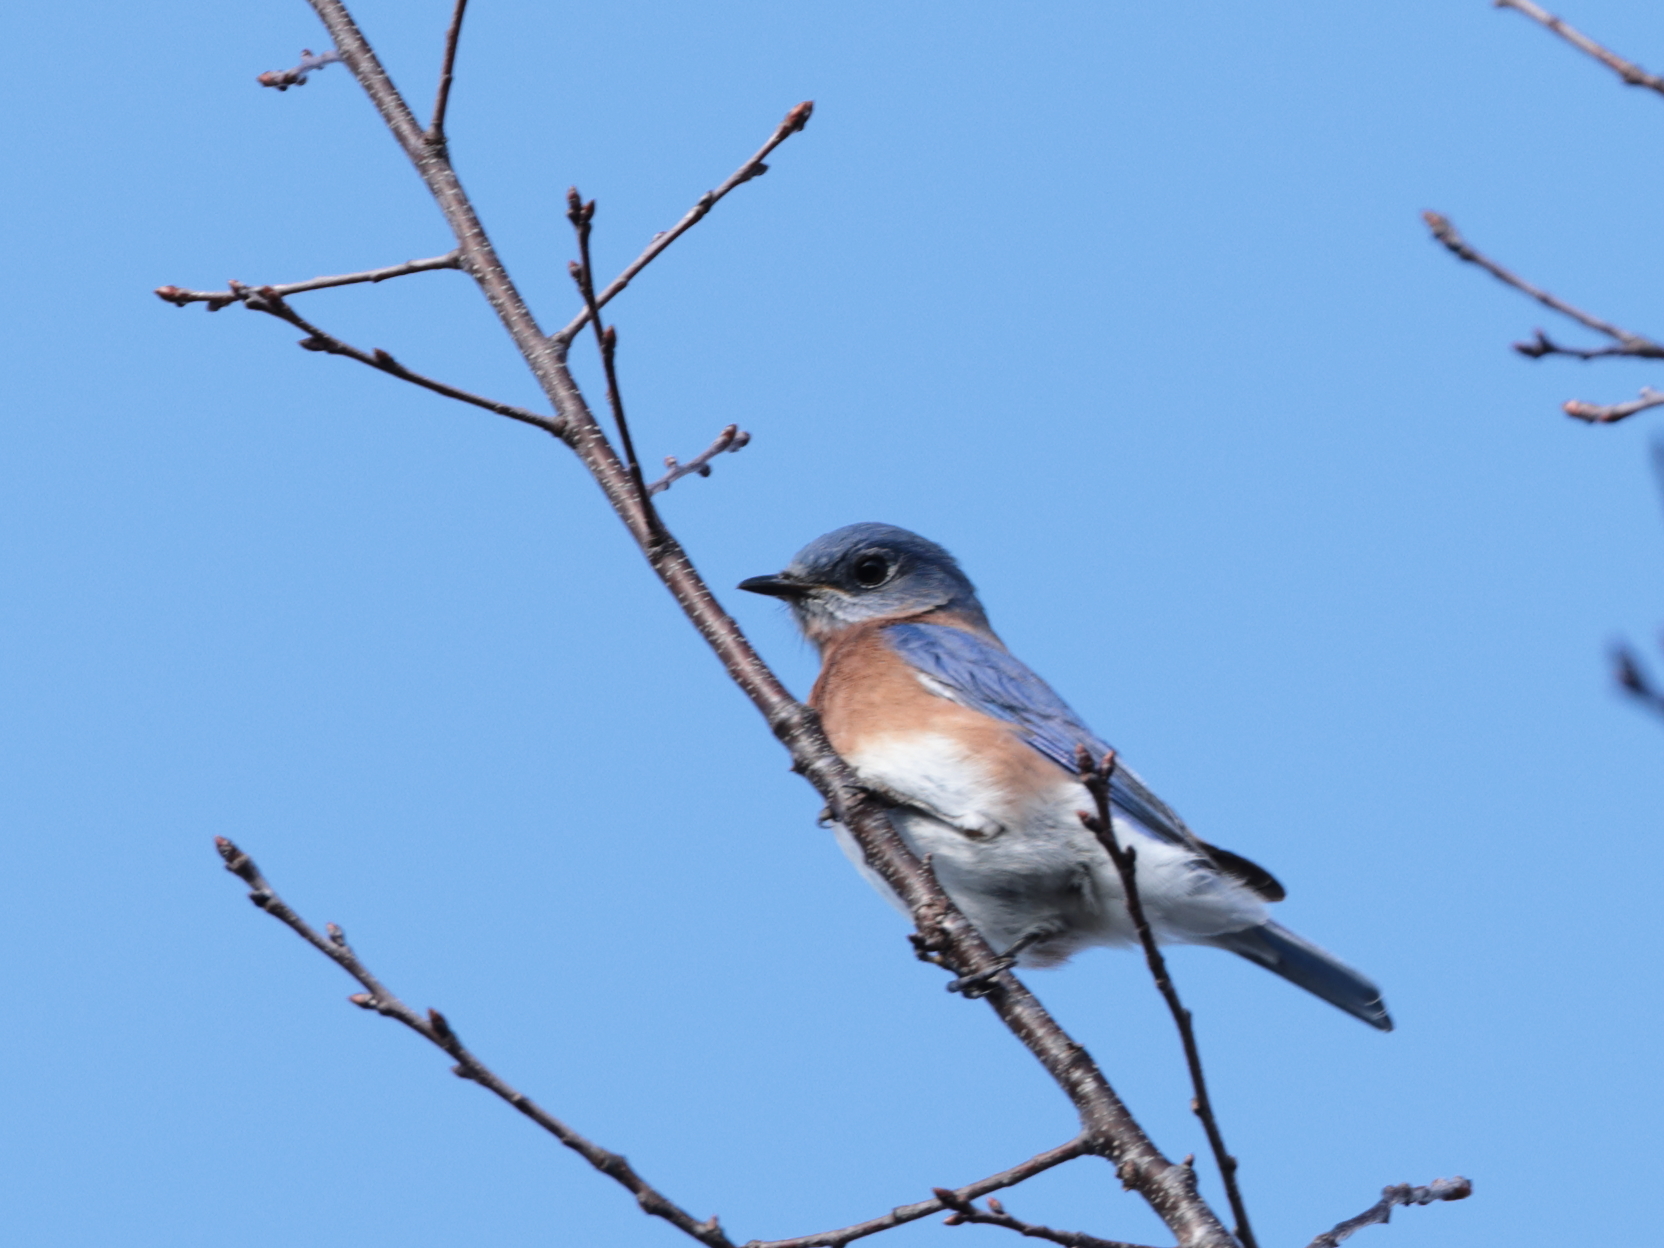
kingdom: Animalia
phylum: Chordata
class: Aves
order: Passeriformes
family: Turdidae
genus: Sialia
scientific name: Sialia sialis
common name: Eastern bluebird
